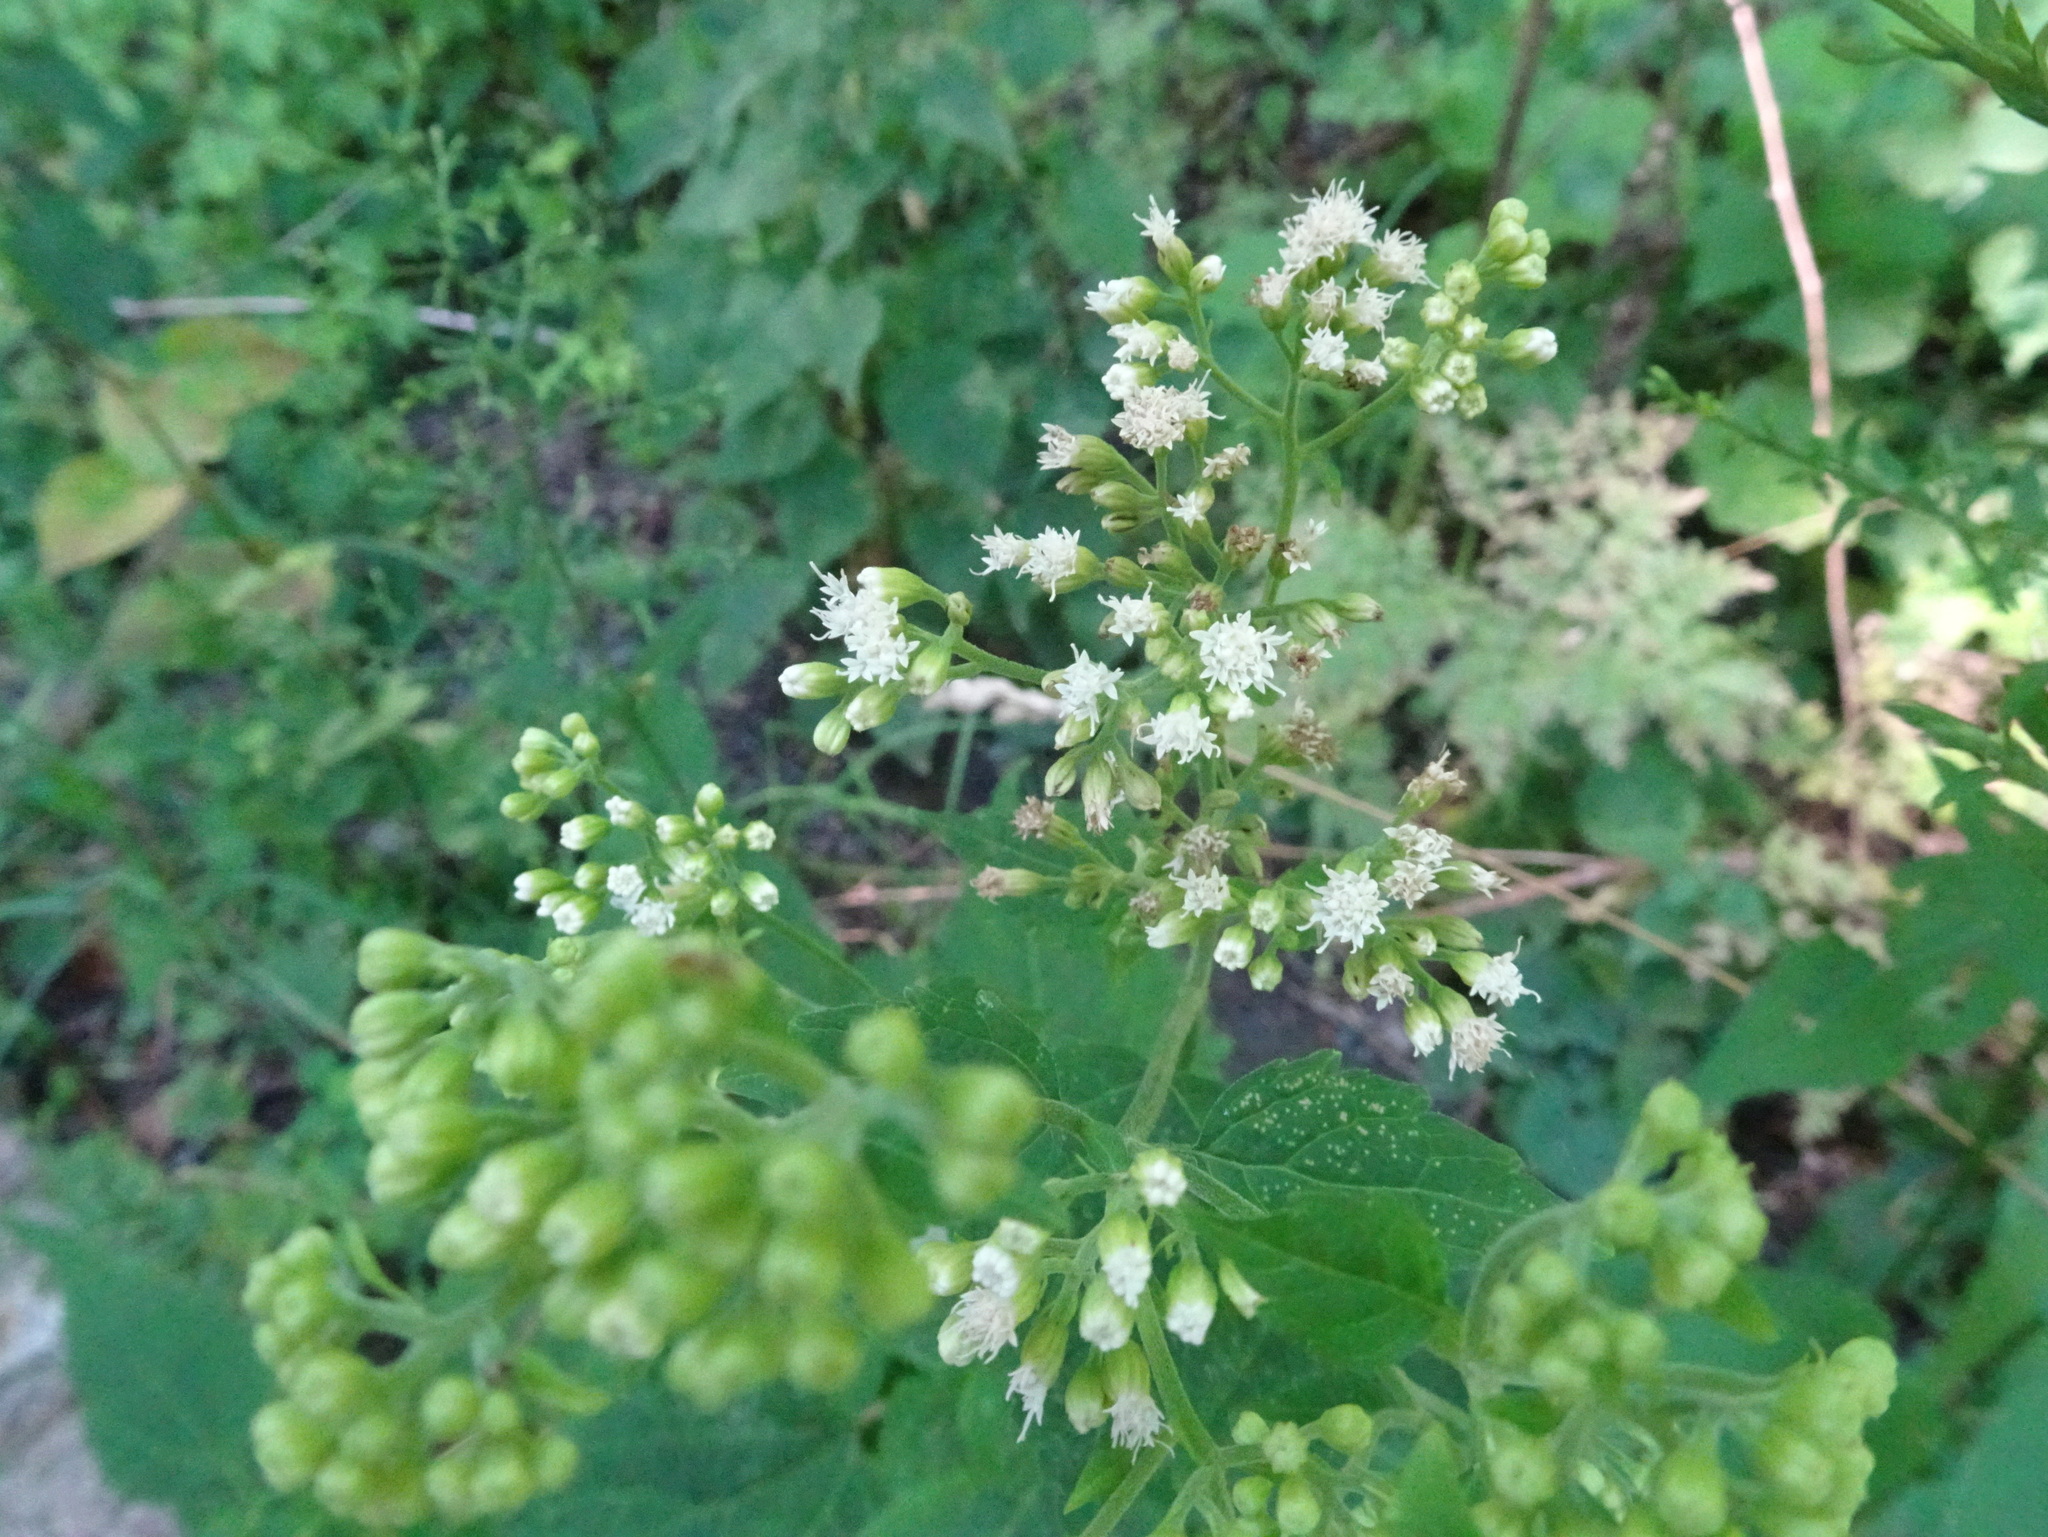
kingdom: Plantae
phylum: Tracheophyta
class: Magnoliopsida
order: Asterales
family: Asteraceae
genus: Ageratina
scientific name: Ageratina altissima
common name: White snakeroot
